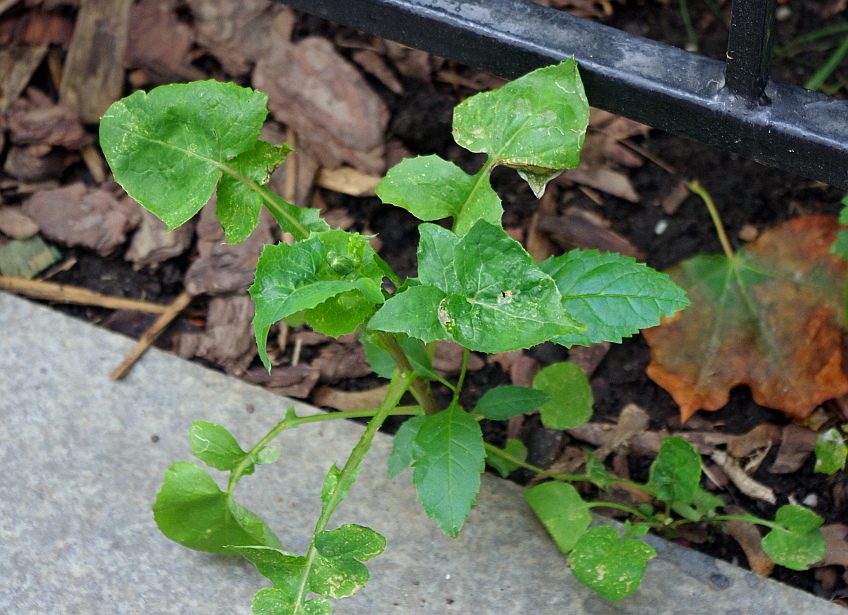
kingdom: Plantae
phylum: Tracheophyta
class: Magnoliopsida
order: Asterales
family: Asteraceae
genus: Sonchus
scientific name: Sonchus oleraceus
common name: Common sowthistle
